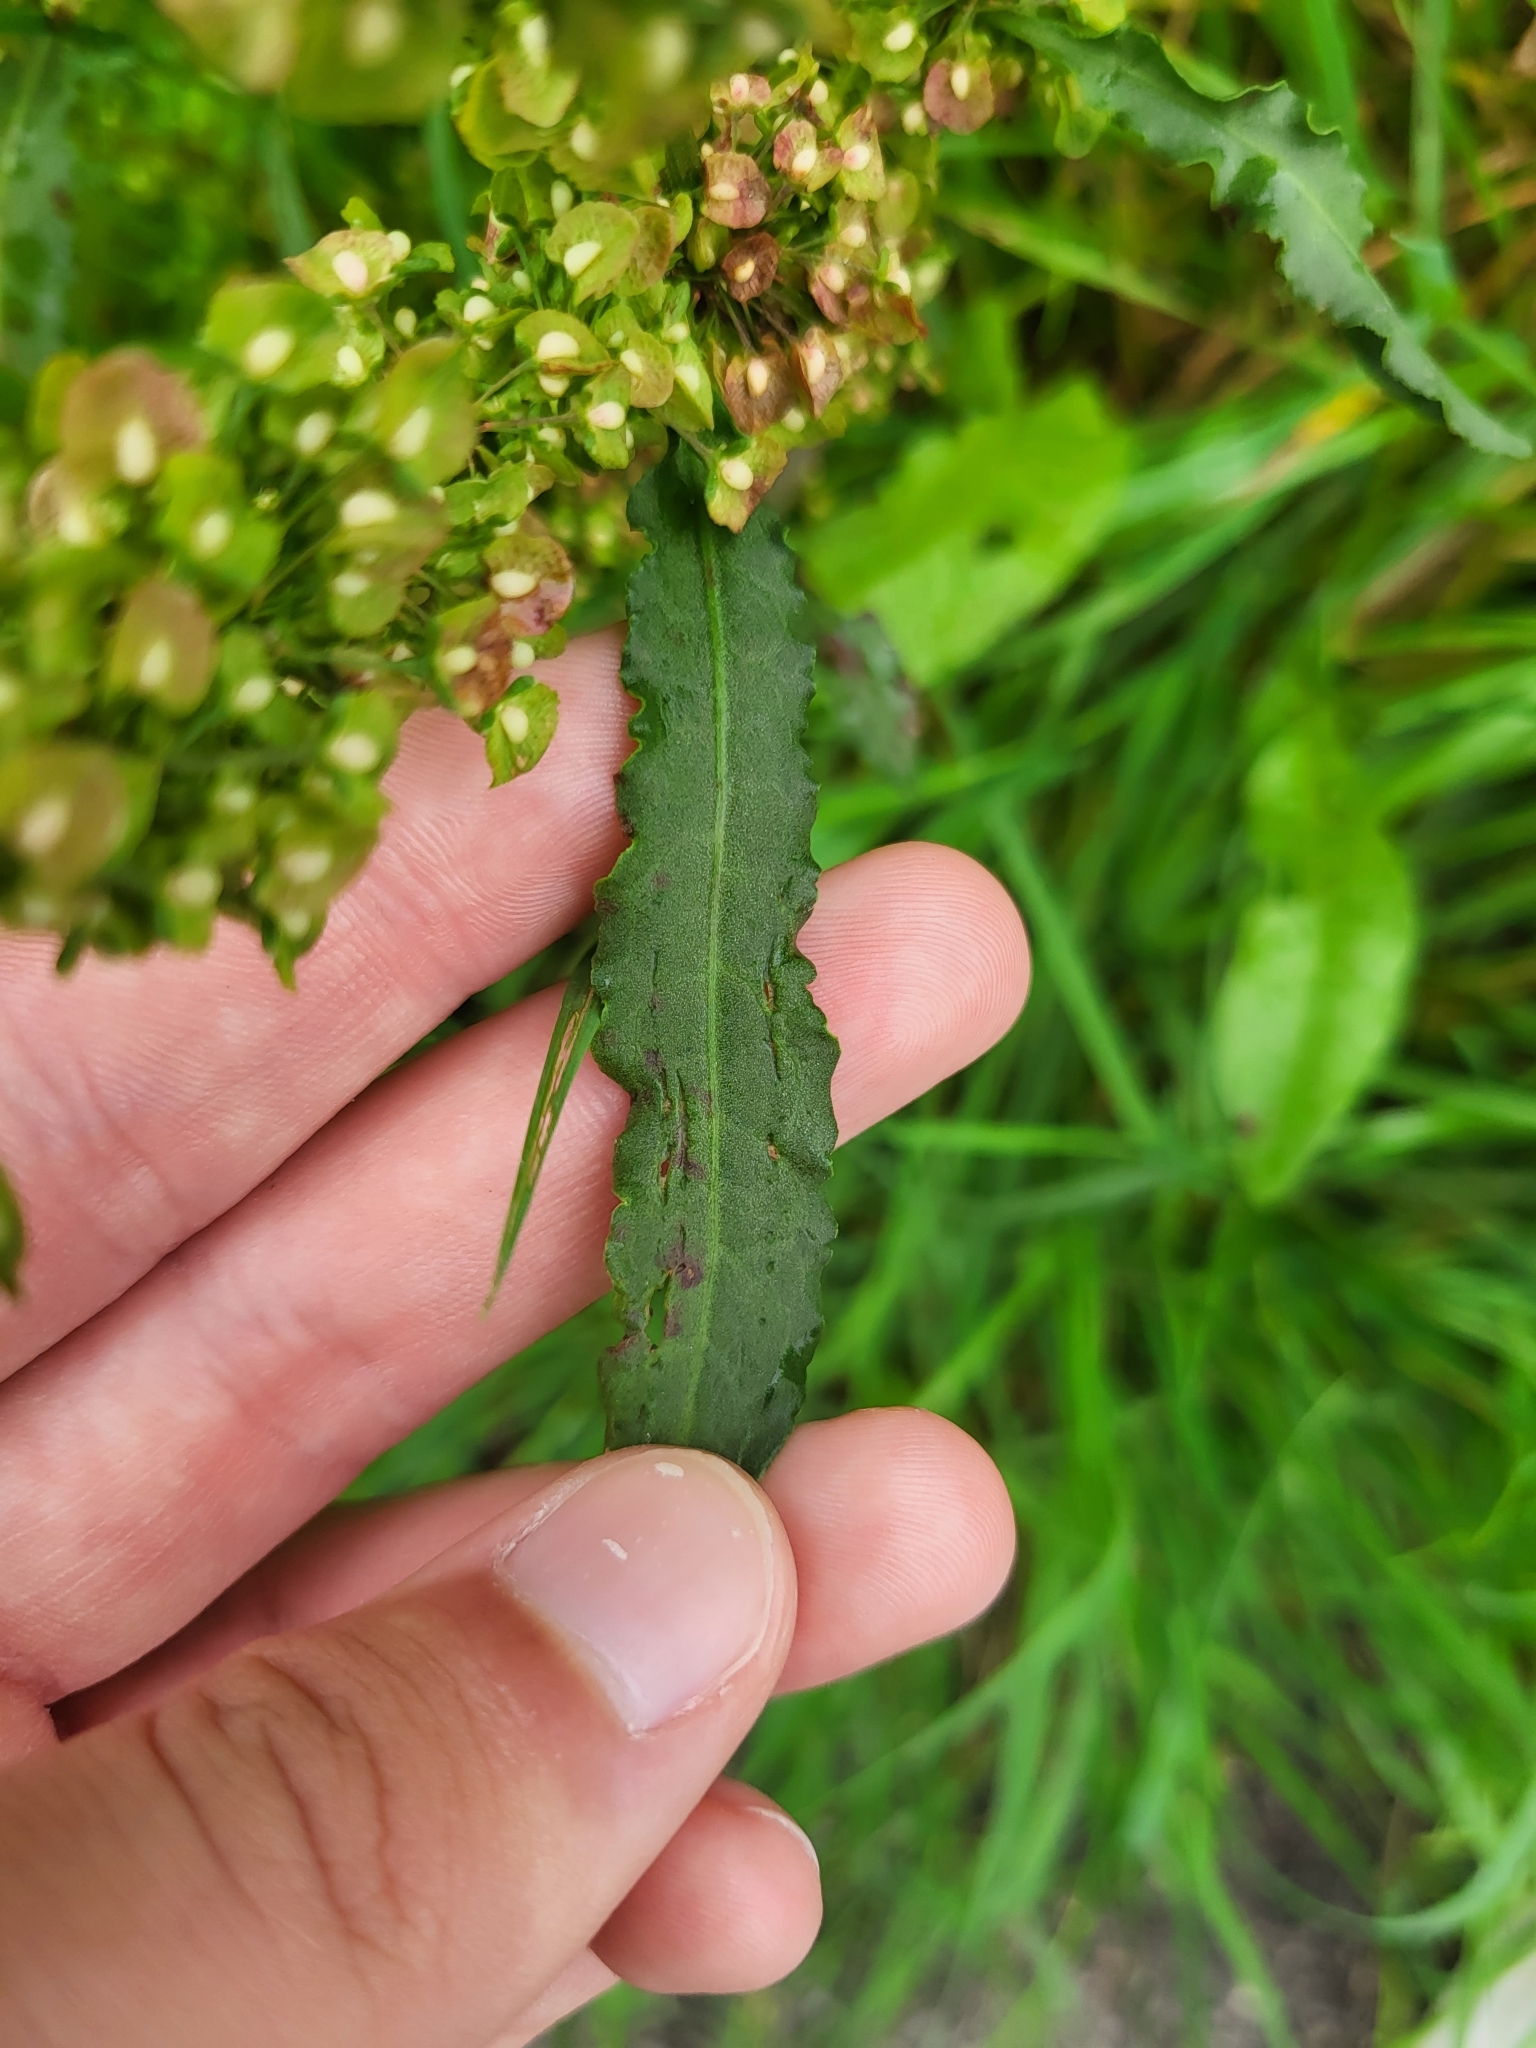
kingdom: Plantae
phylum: Tracheophyta
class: Magnoliopsida
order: Caryophyllales
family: Polygonaceae
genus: Rumex
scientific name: Rumex crispus
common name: Curled dock
